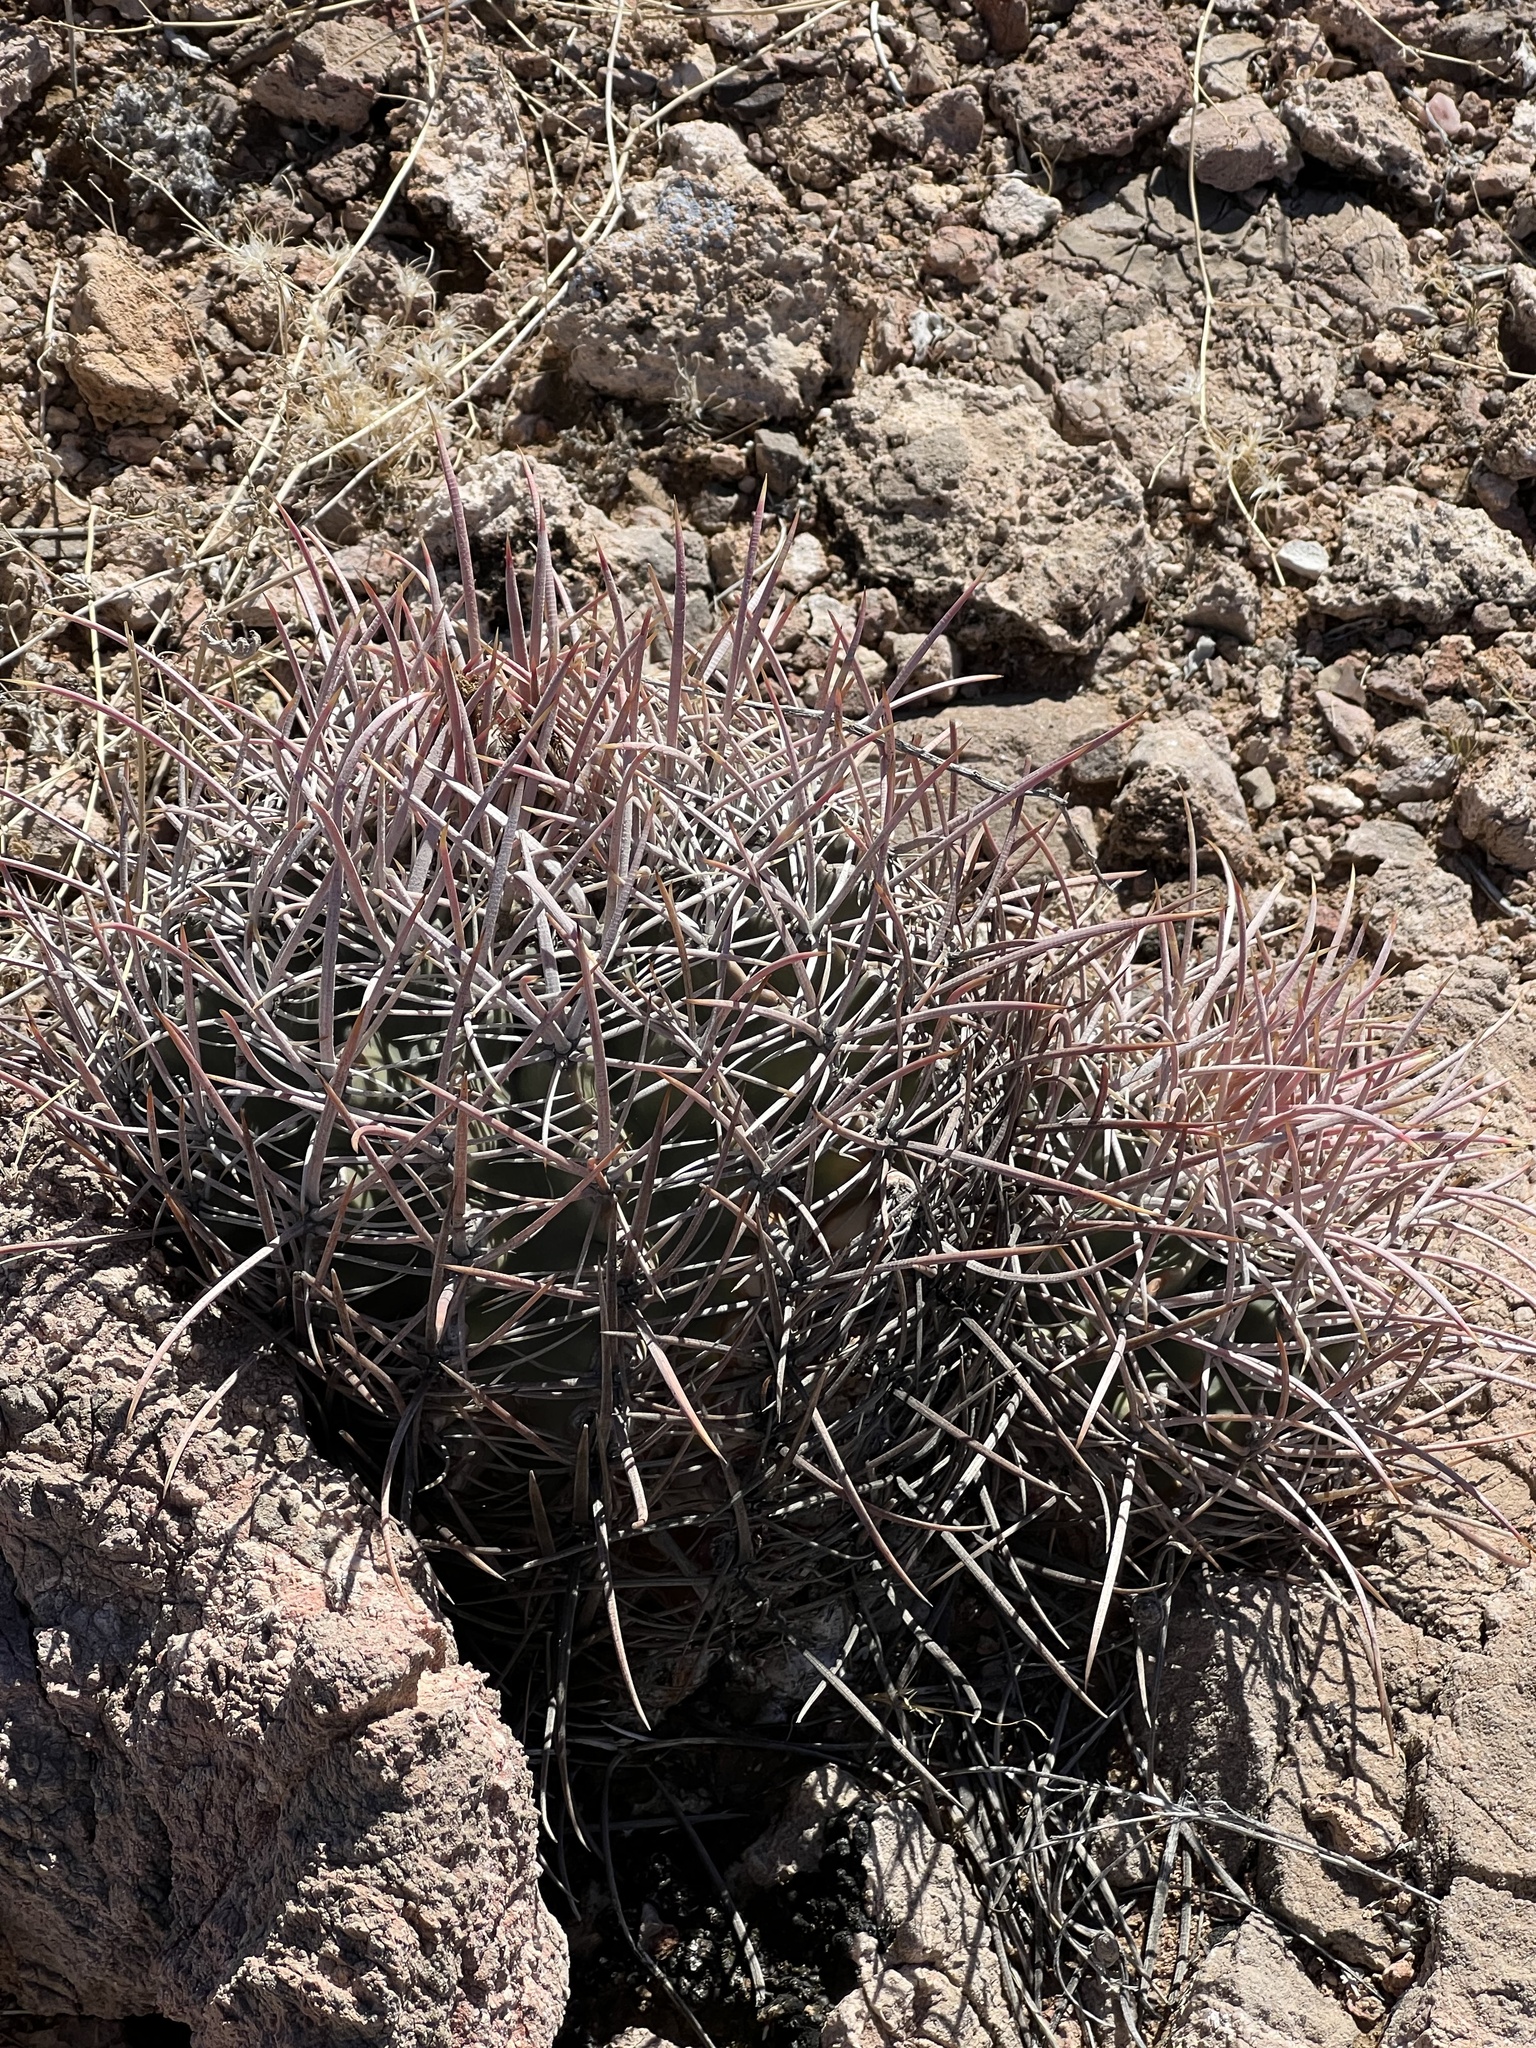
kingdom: Plantae
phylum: Tracheophyta
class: Magnoliopsida
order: Caryophyllales
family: Cactaceae
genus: Echinocactus
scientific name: Echinocactus polycephalus
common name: Cottontop cactus
